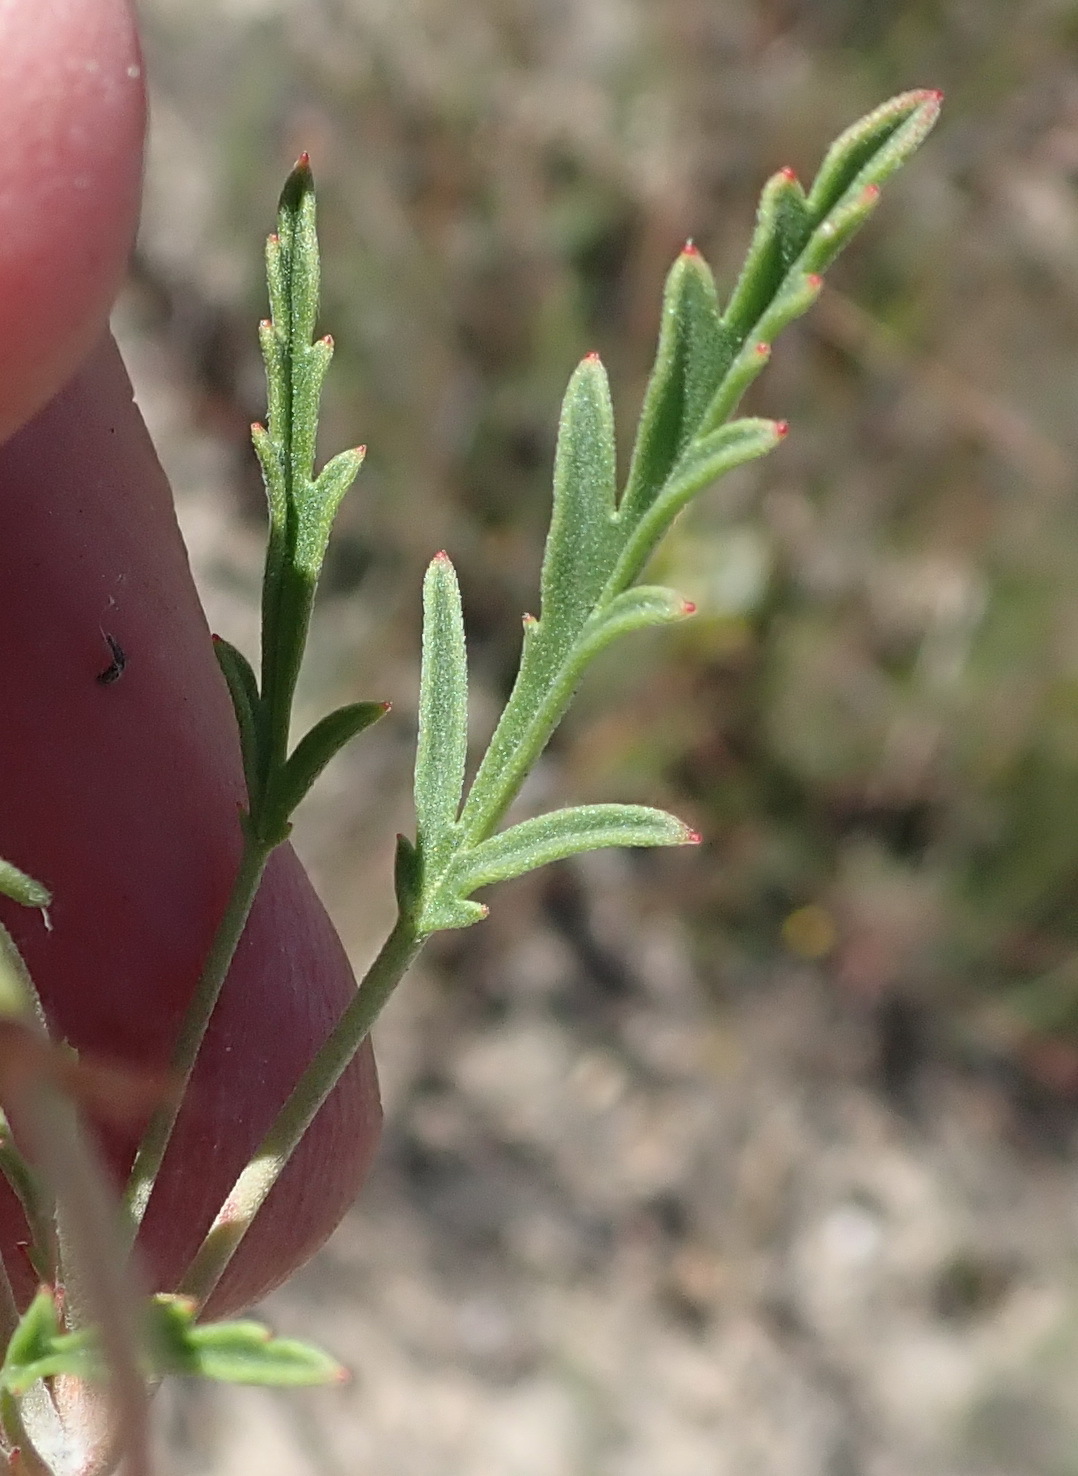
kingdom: Plantae
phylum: Tracheophyta
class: Magnoliopsida
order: Geraniales
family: Geraniaceae
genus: Pelargonium
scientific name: Pelargonium tricolor
